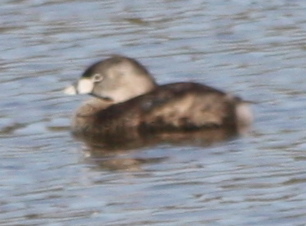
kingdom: Animalia
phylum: Chordata
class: Aves
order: Podicipediformes
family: Podicipedidae
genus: Podilymbus
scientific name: Podilymbus podiceps
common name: Pied-billed grebe
